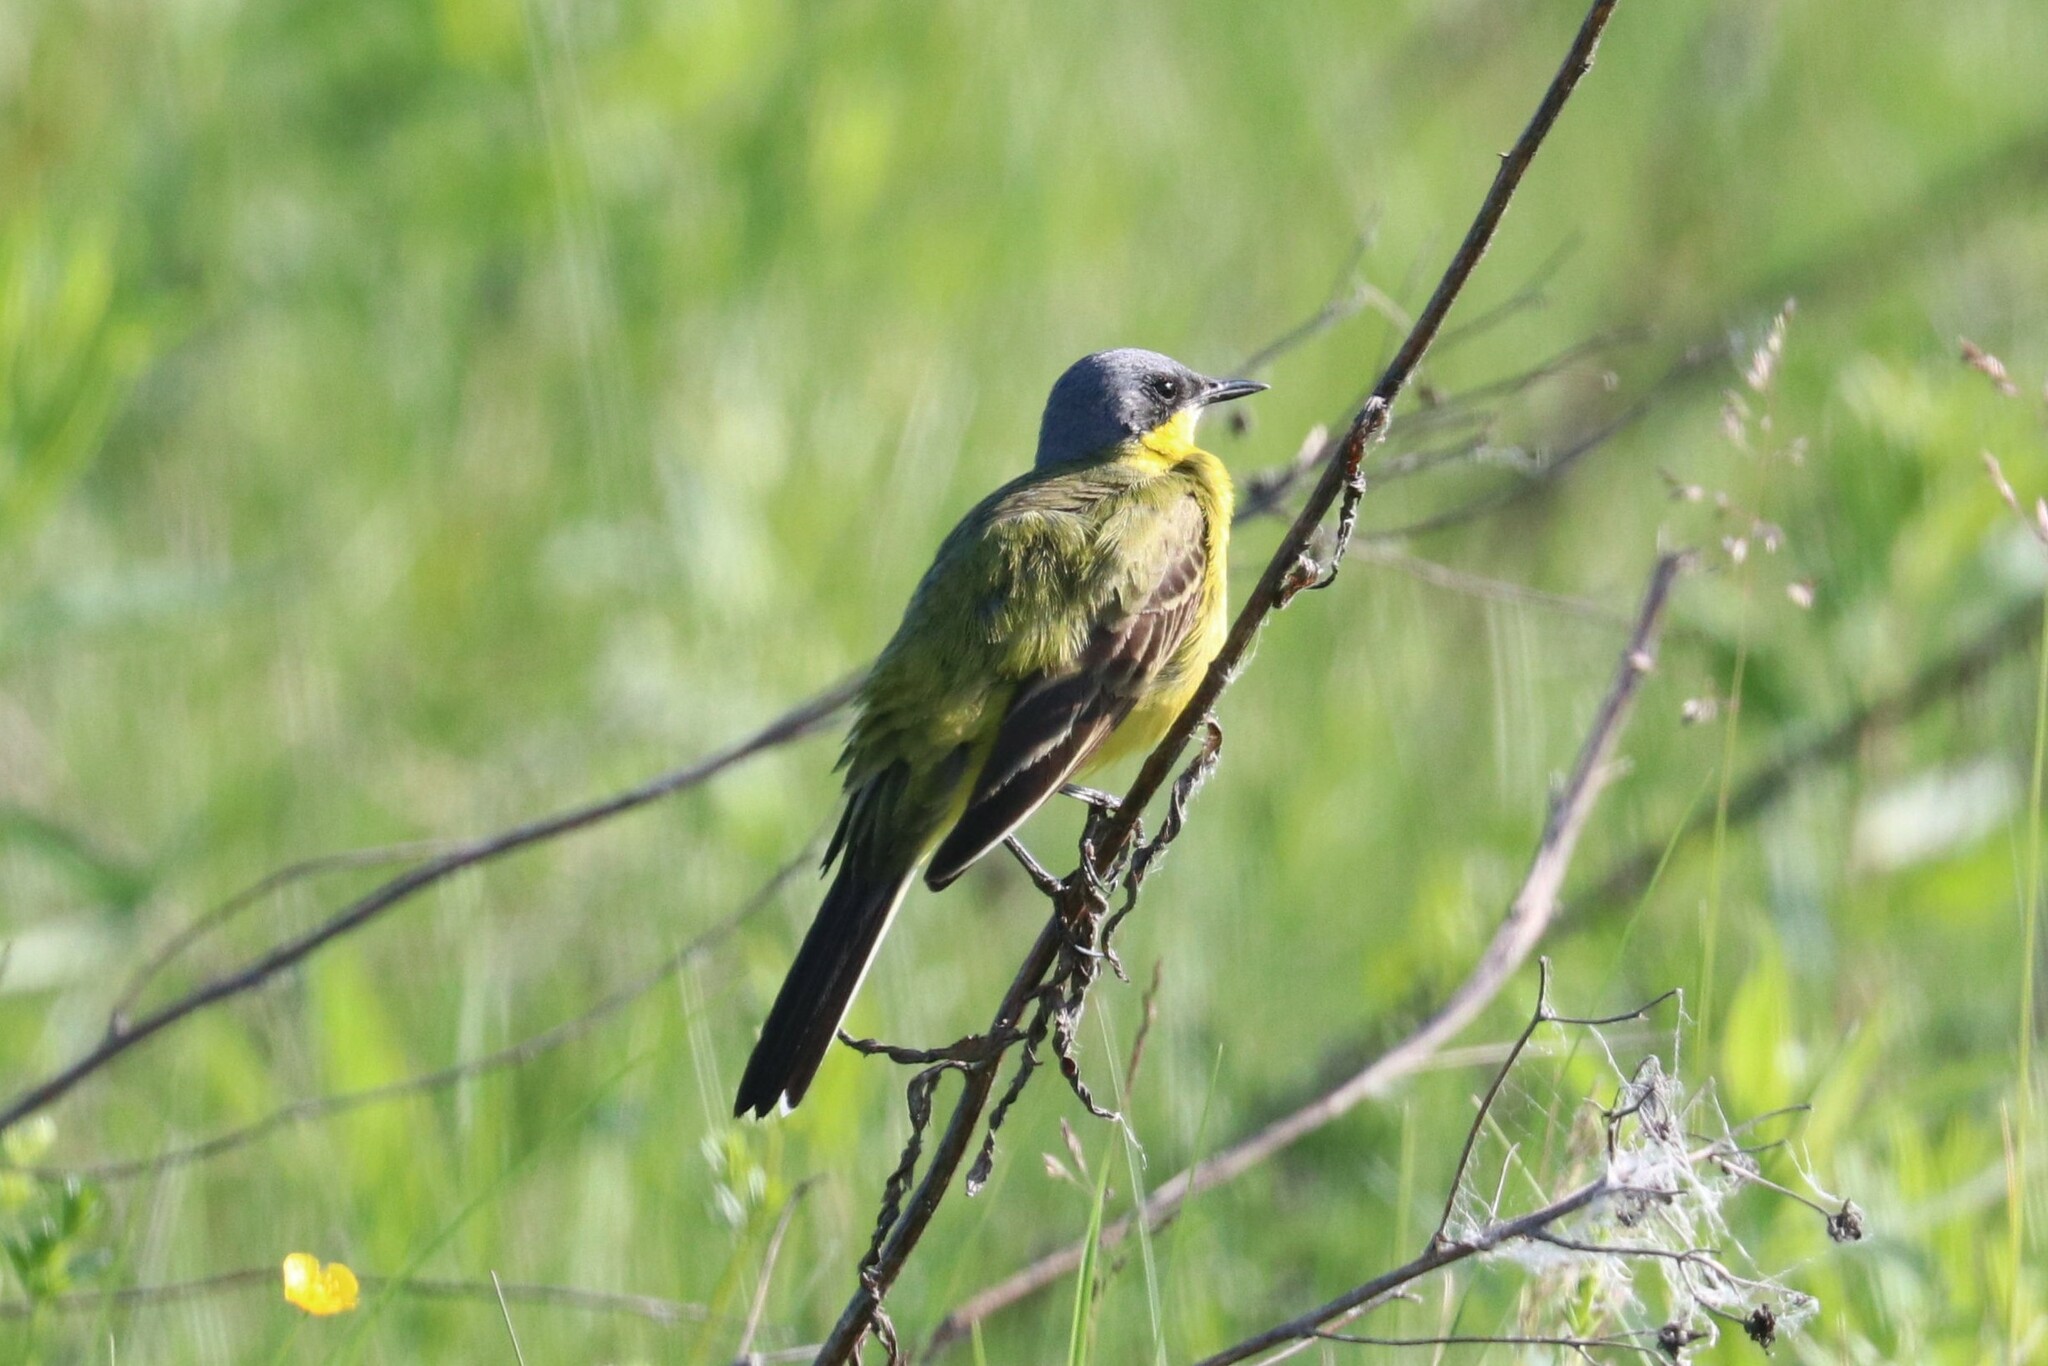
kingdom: Animalia
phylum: Chordata
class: Aves
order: Passeriformes
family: Motacillidae
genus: Motacilla
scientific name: Motacilla flava
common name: Western yellow wagtail
